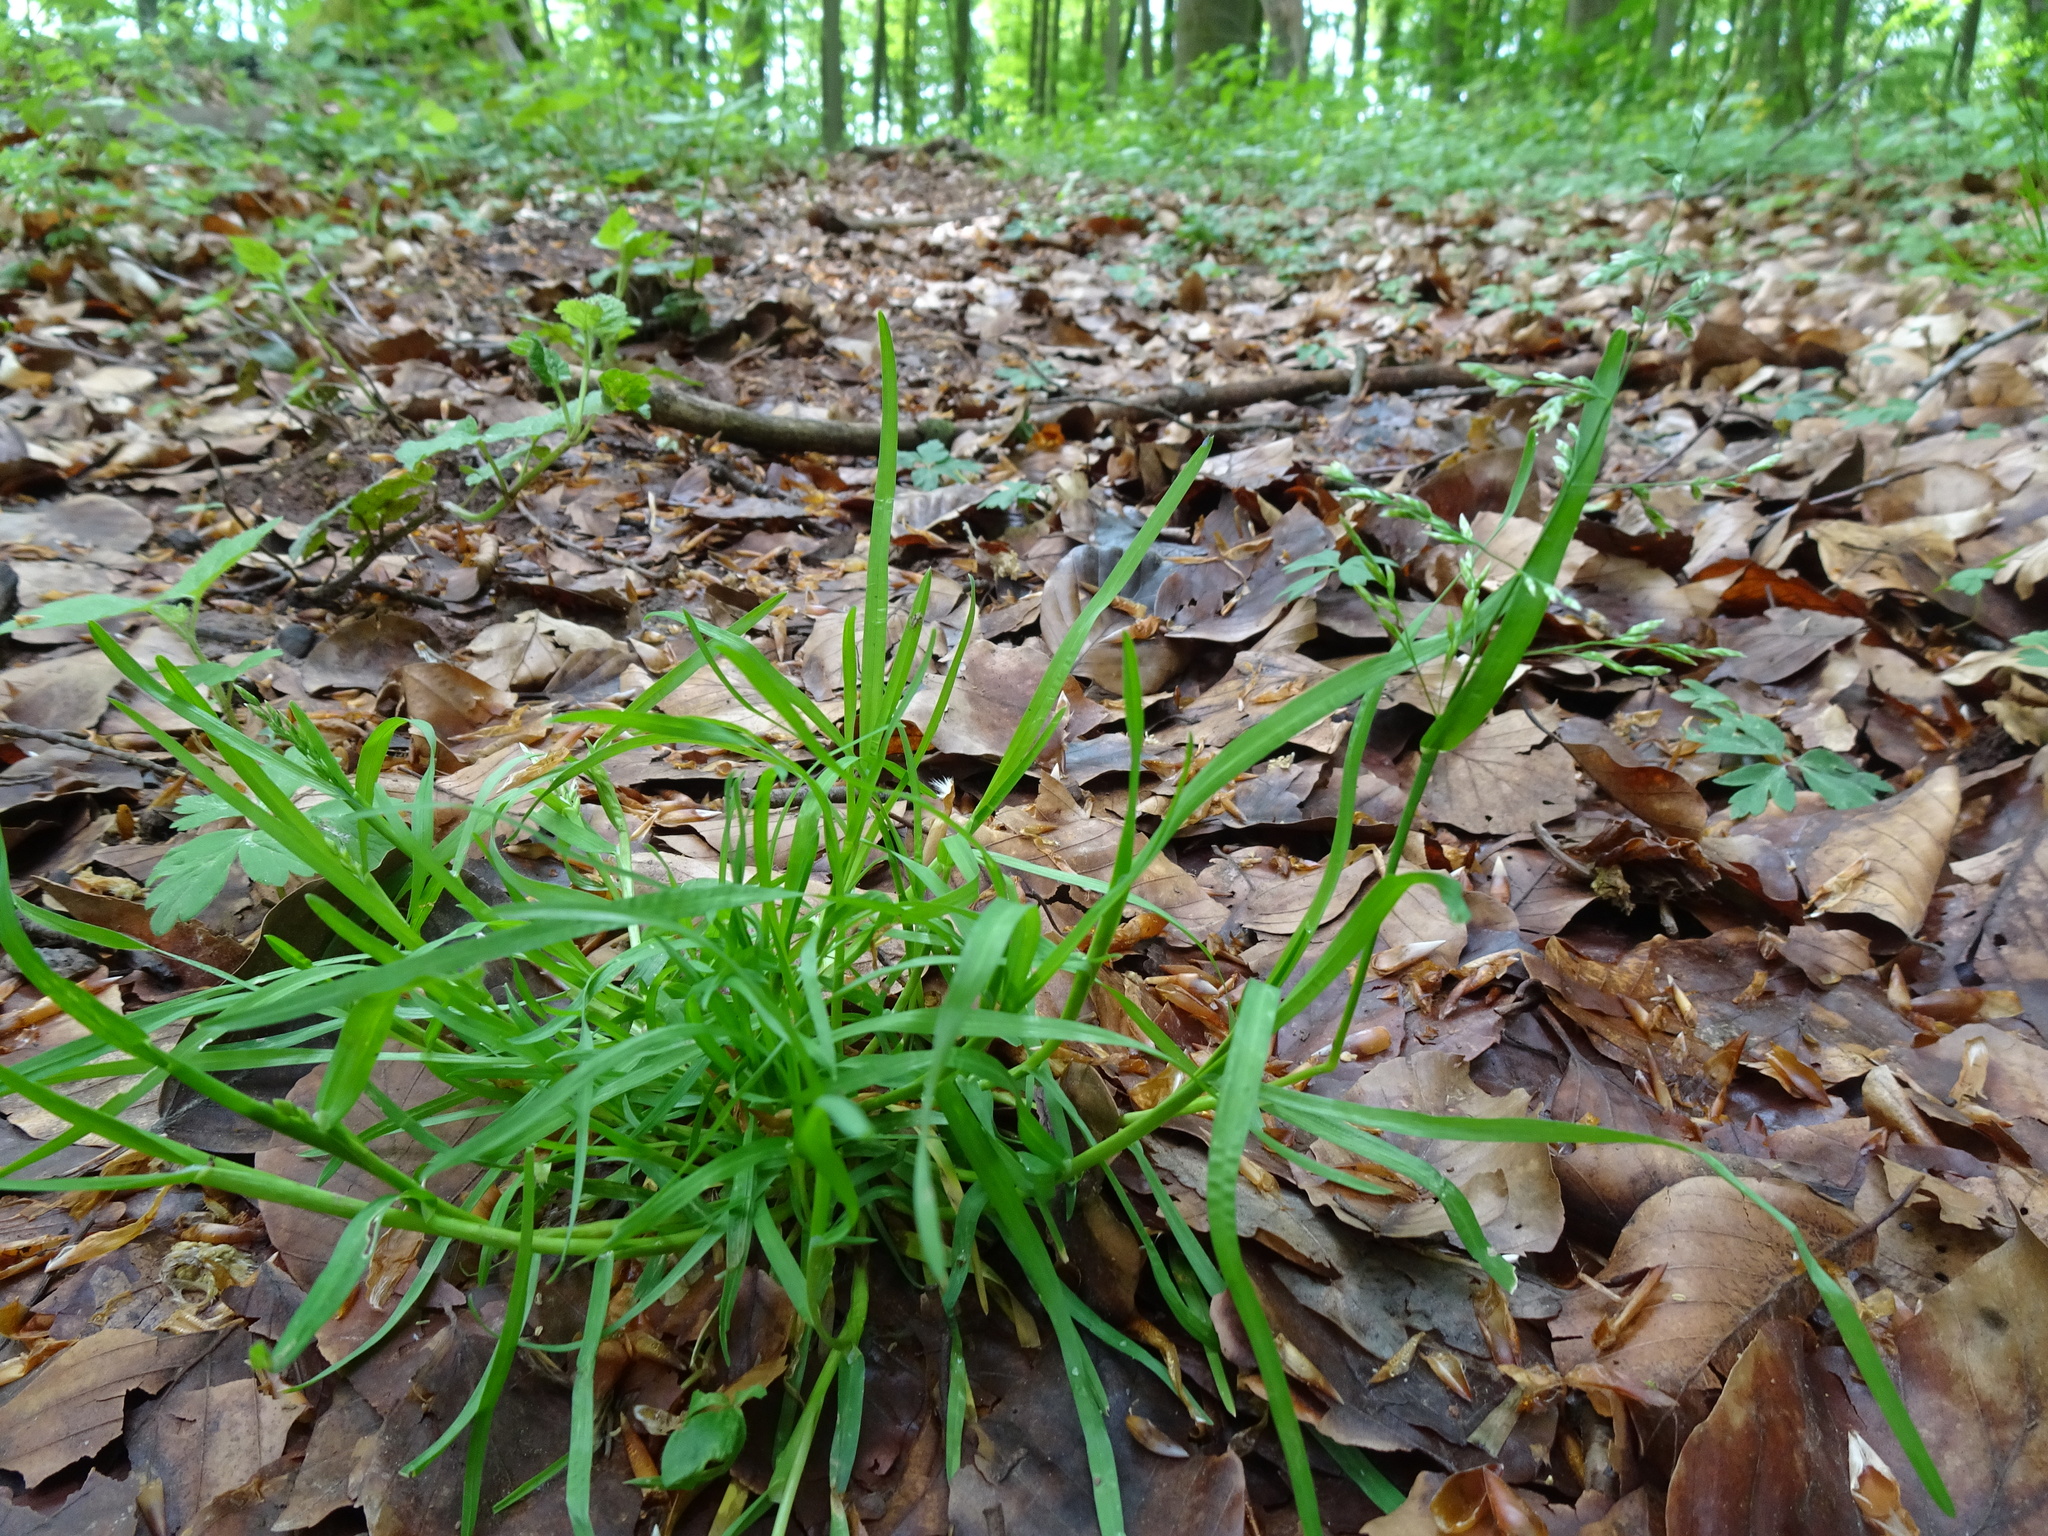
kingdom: Plantae
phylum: Tracheophyta
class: Liliopsida
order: Poales
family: Poaceae
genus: Poa
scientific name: Poa annua
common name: Annual bluegrass
